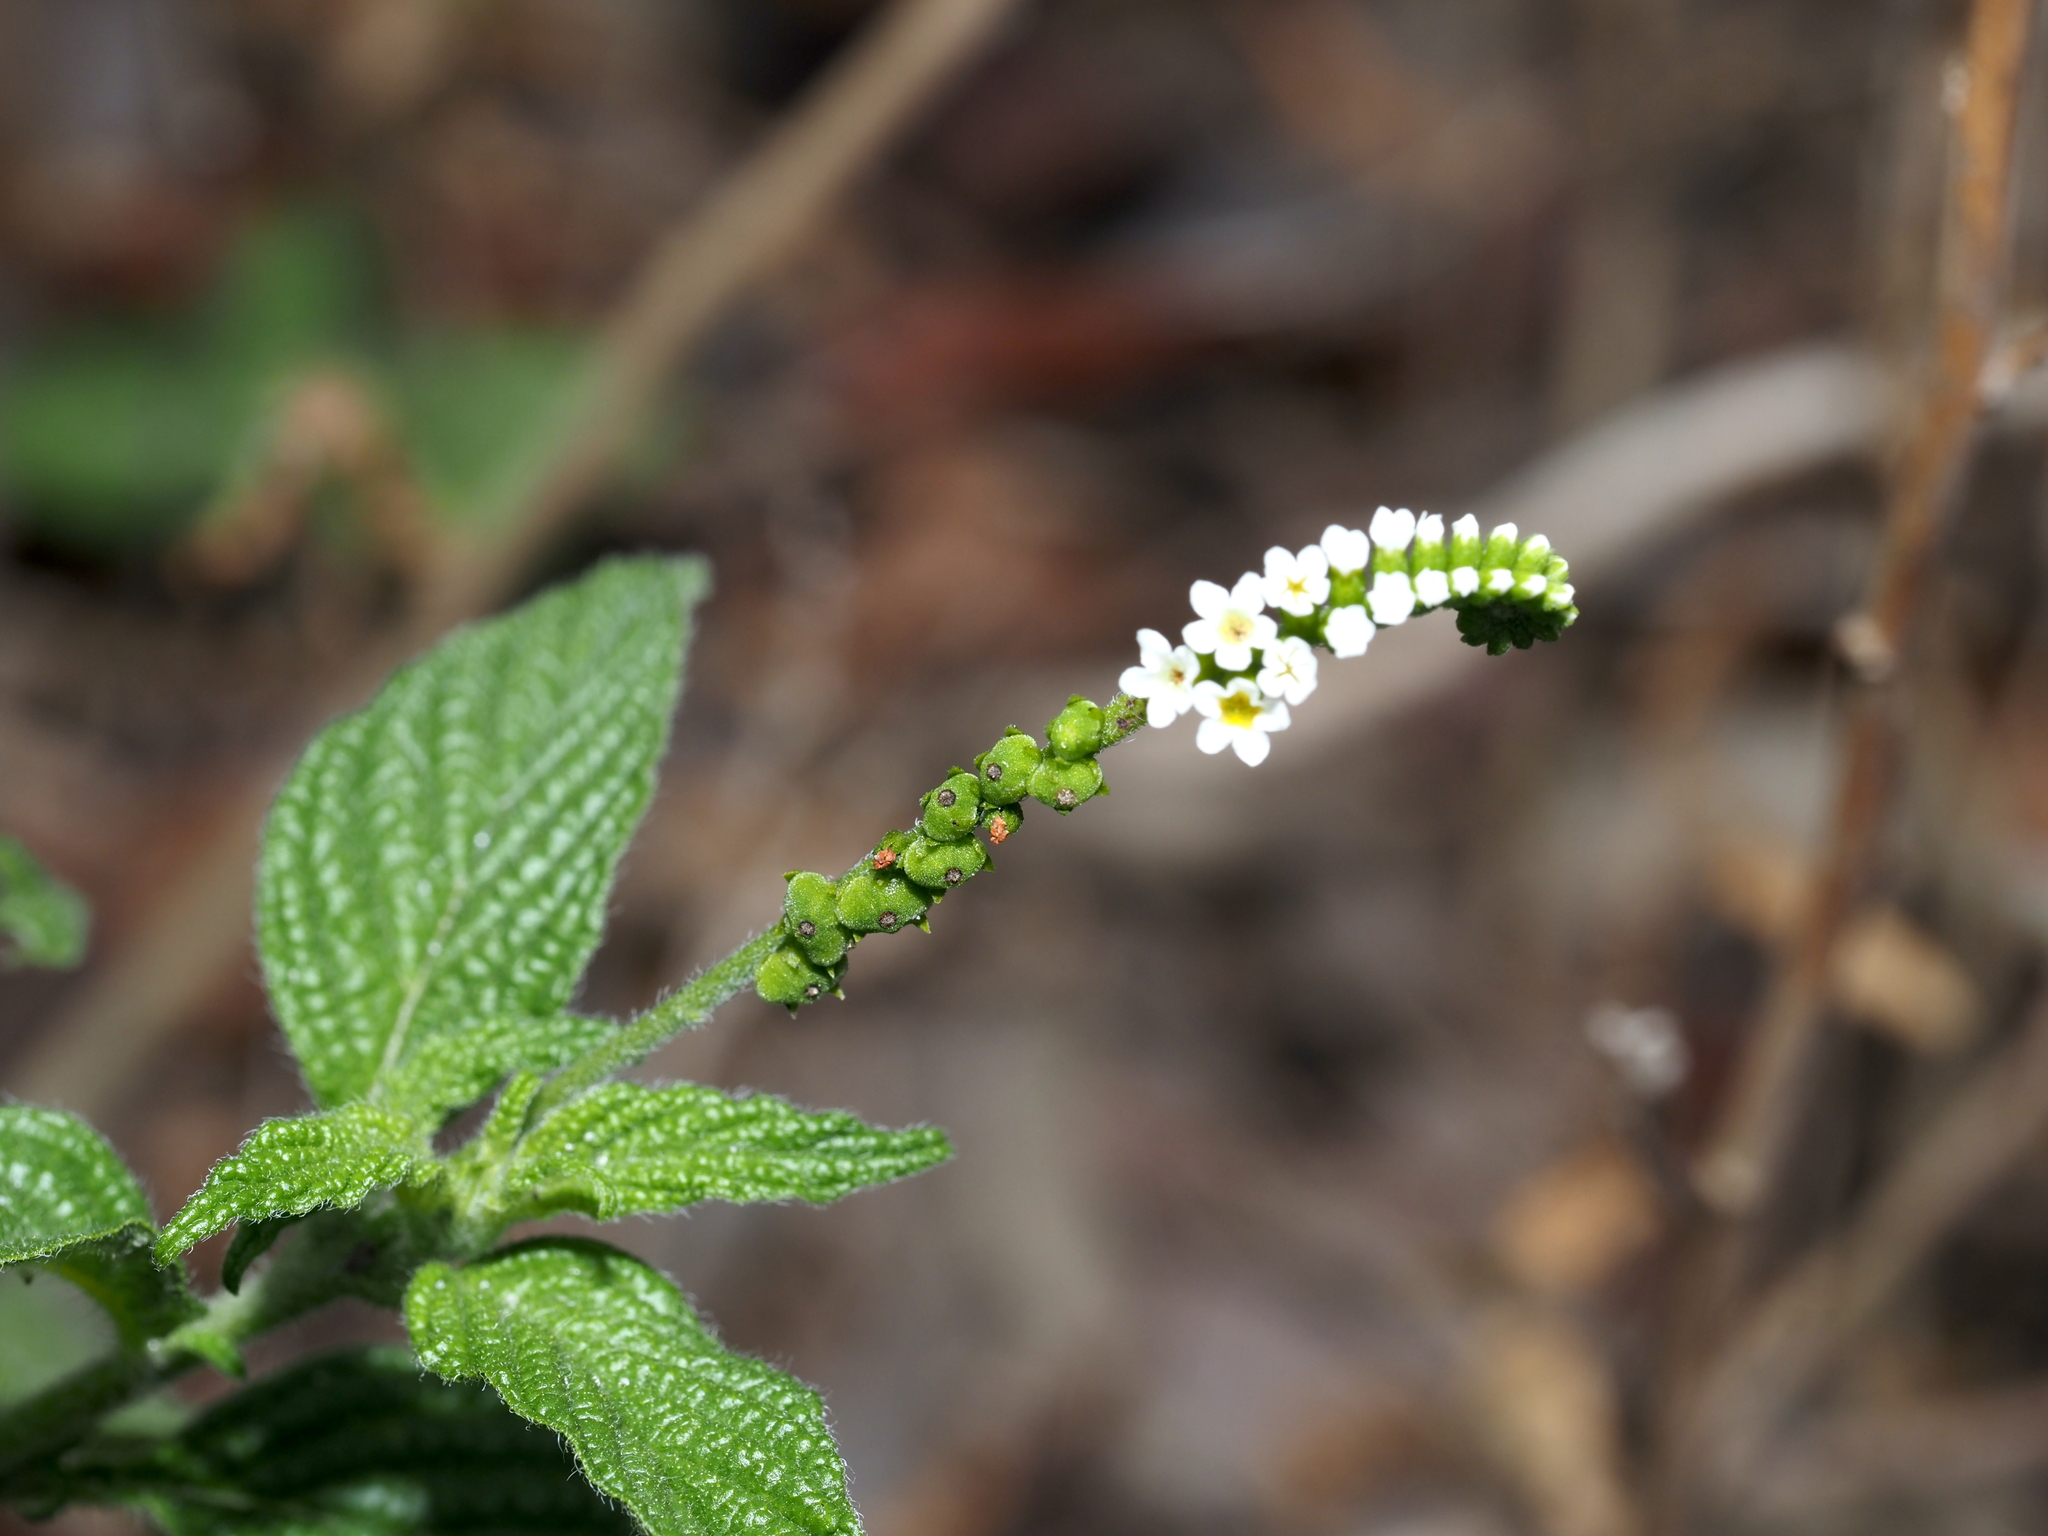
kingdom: Plantae
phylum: Tracheophyta
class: Magnoliopsida
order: Boraginales
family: Heliotropiaceae
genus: Heliotropium
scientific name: Heliotropium angiospermum
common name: Eye bright
